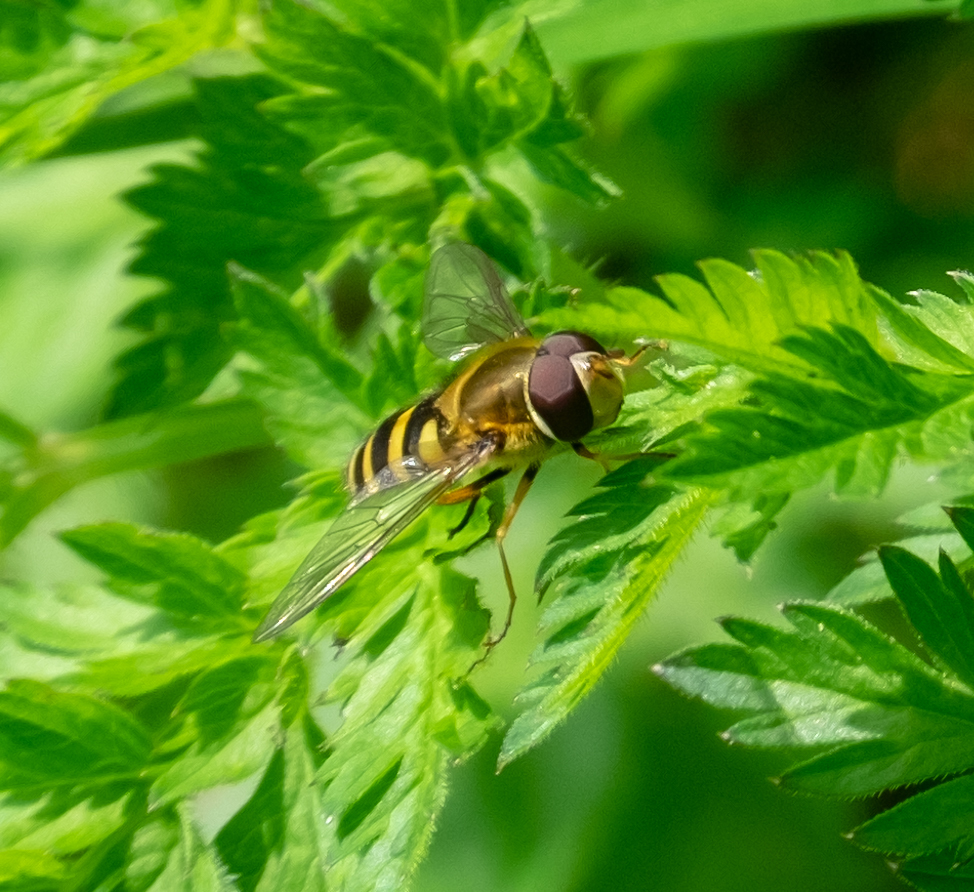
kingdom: Animalia
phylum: Arthropoda
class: Insecta
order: Diptera
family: Syrphidae
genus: Syrphus
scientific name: Syrphus
